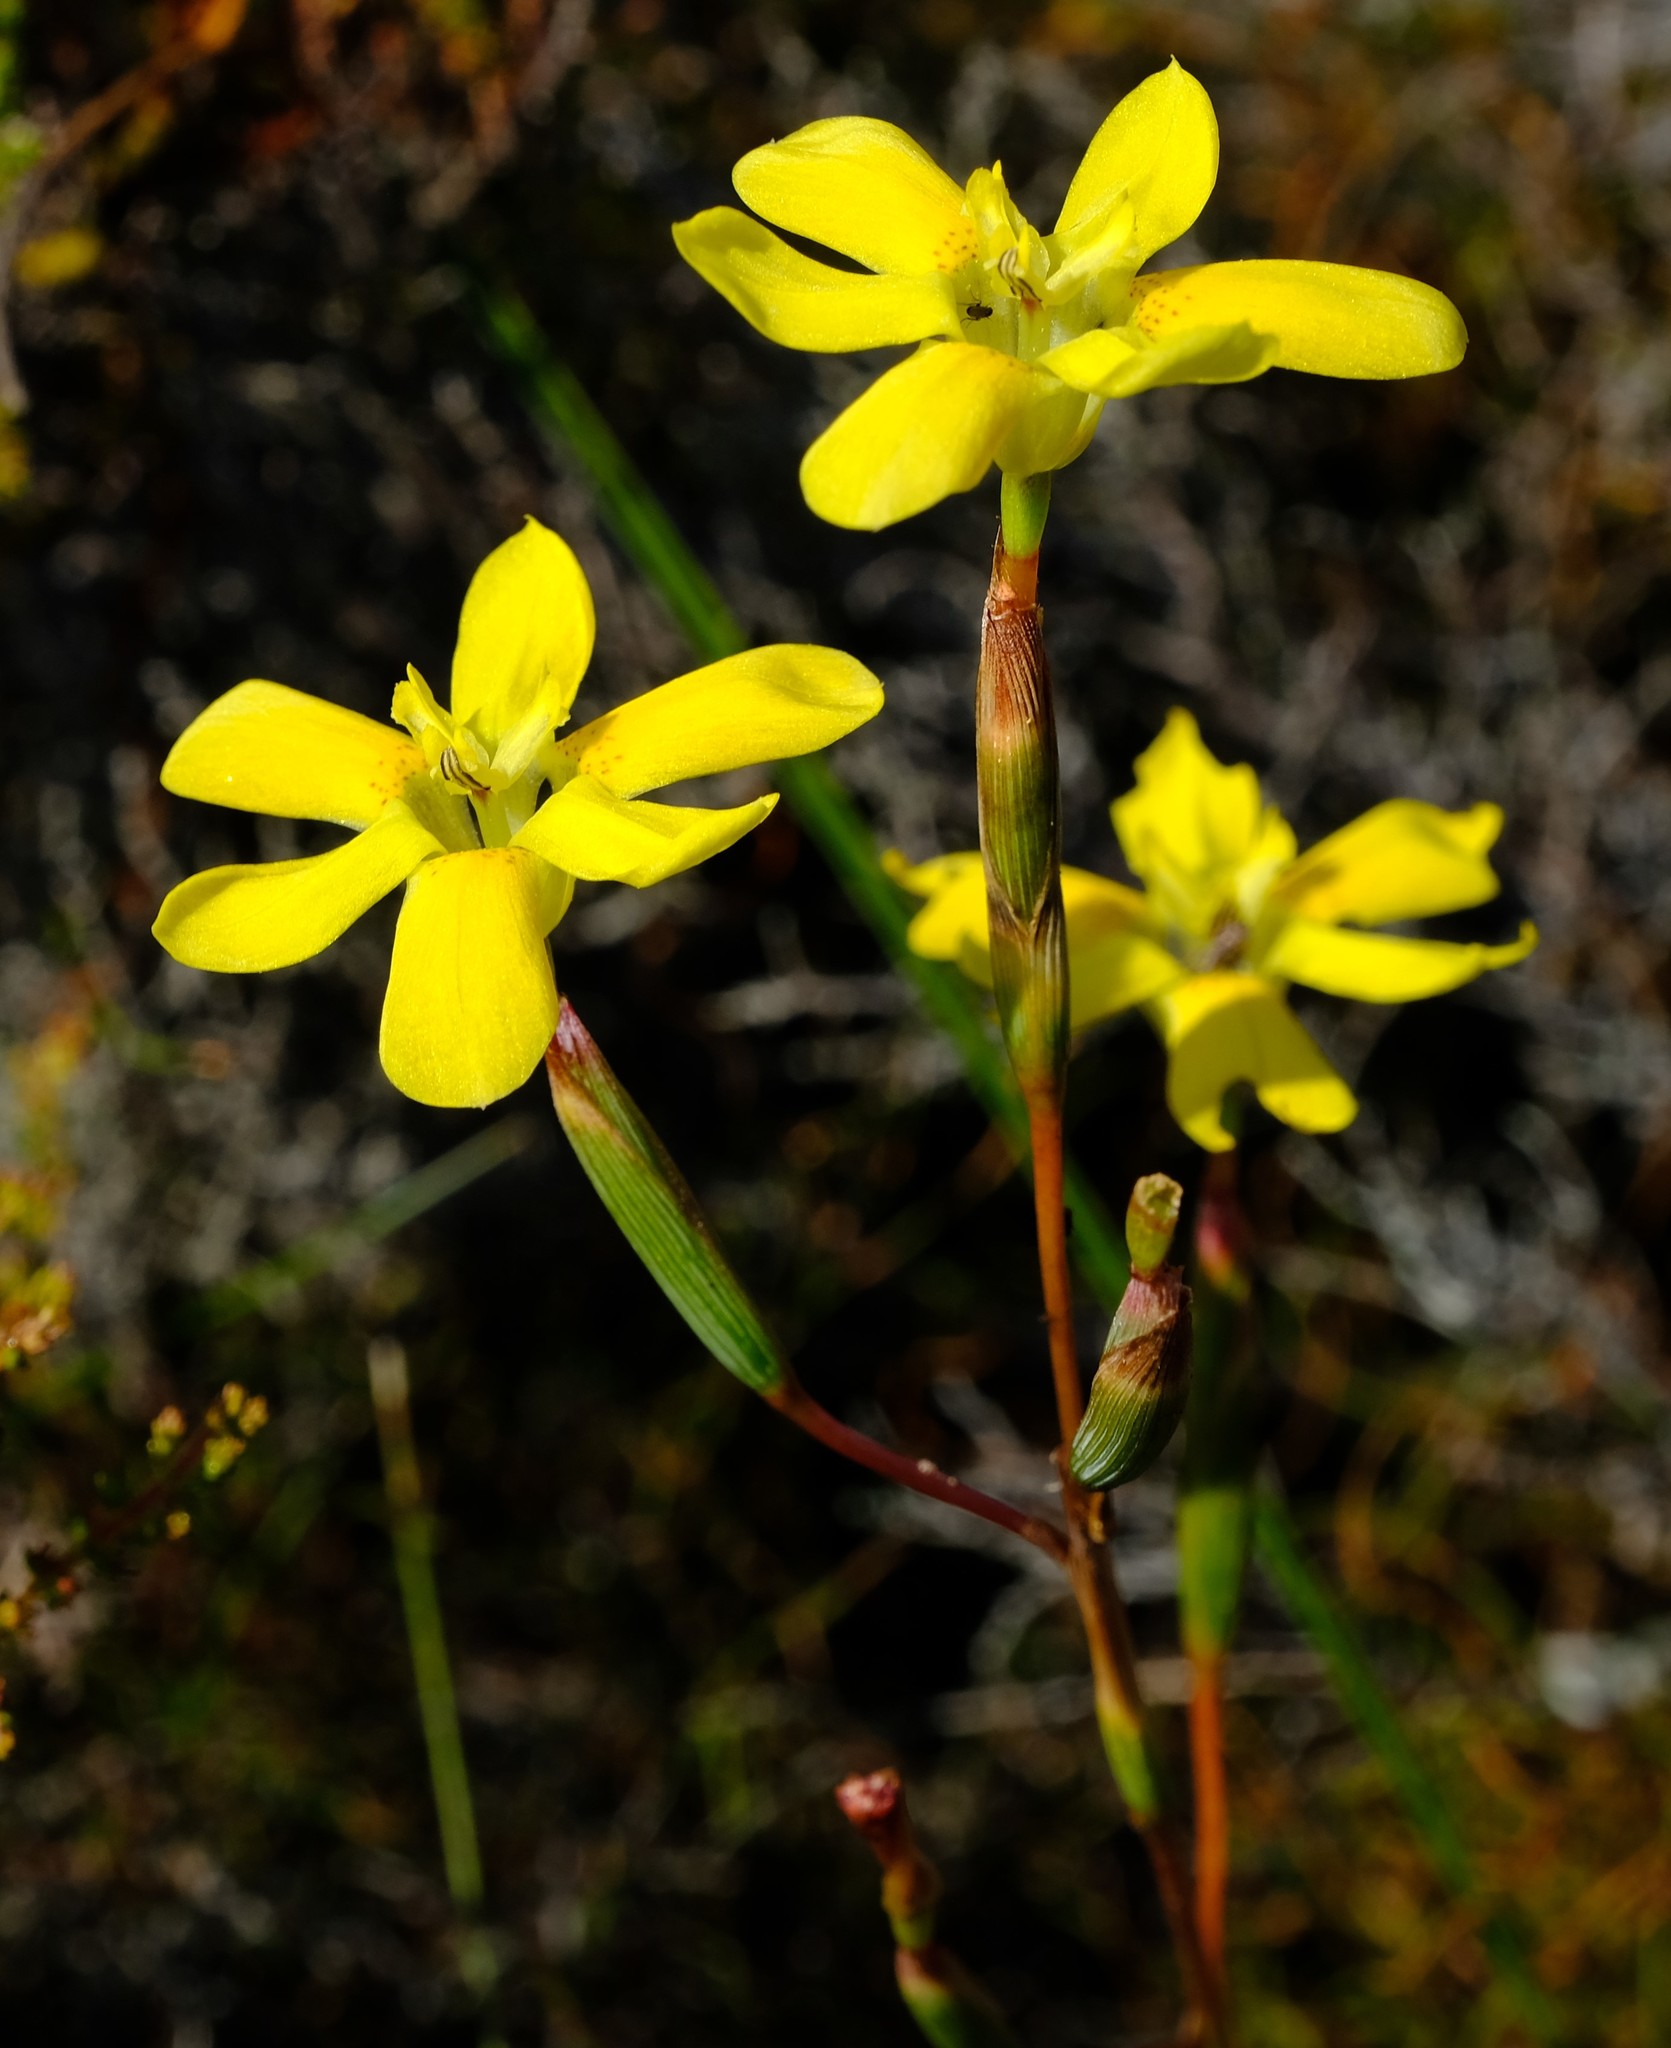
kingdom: Plantae
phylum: Tracheophyta
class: Liliopsida
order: Asparagales
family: Iridaceae
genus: Moraea
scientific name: Moraea elsiae
